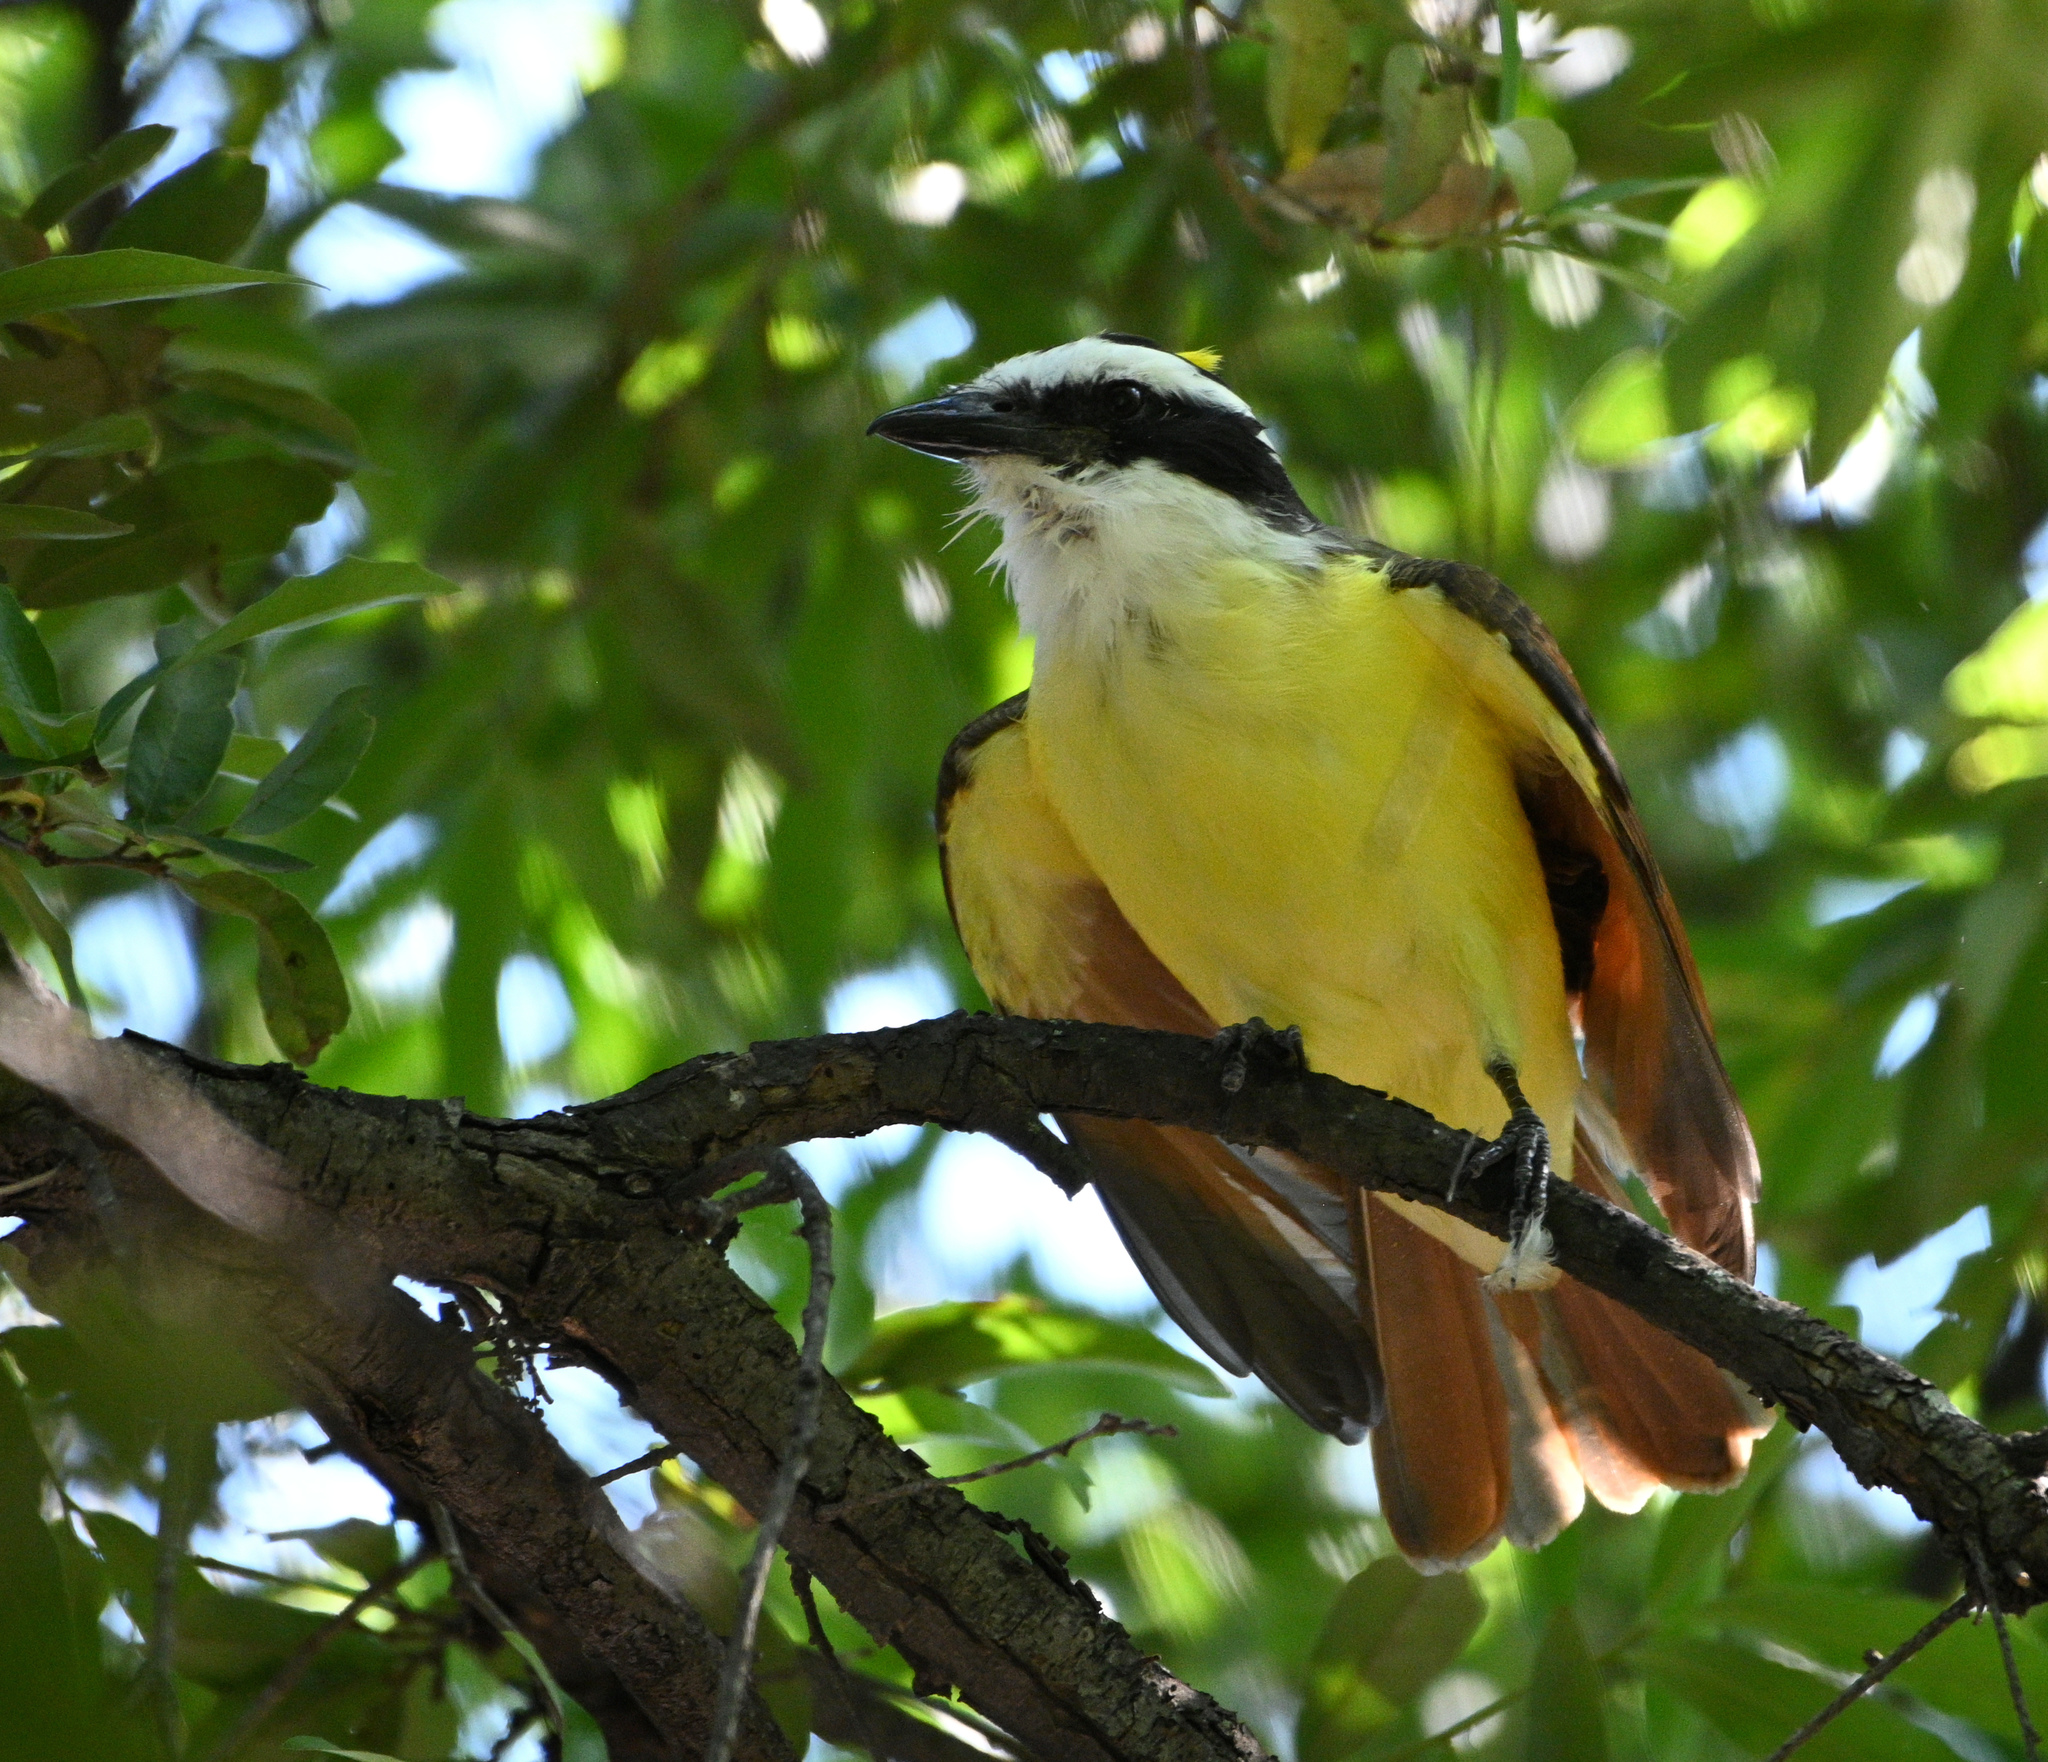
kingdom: Animalia
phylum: Chordata
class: Aves
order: Passeriformes
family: Tyrannidae
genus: Pitangus
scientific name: Pitangus sulphuratus
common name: Great kiskadee
